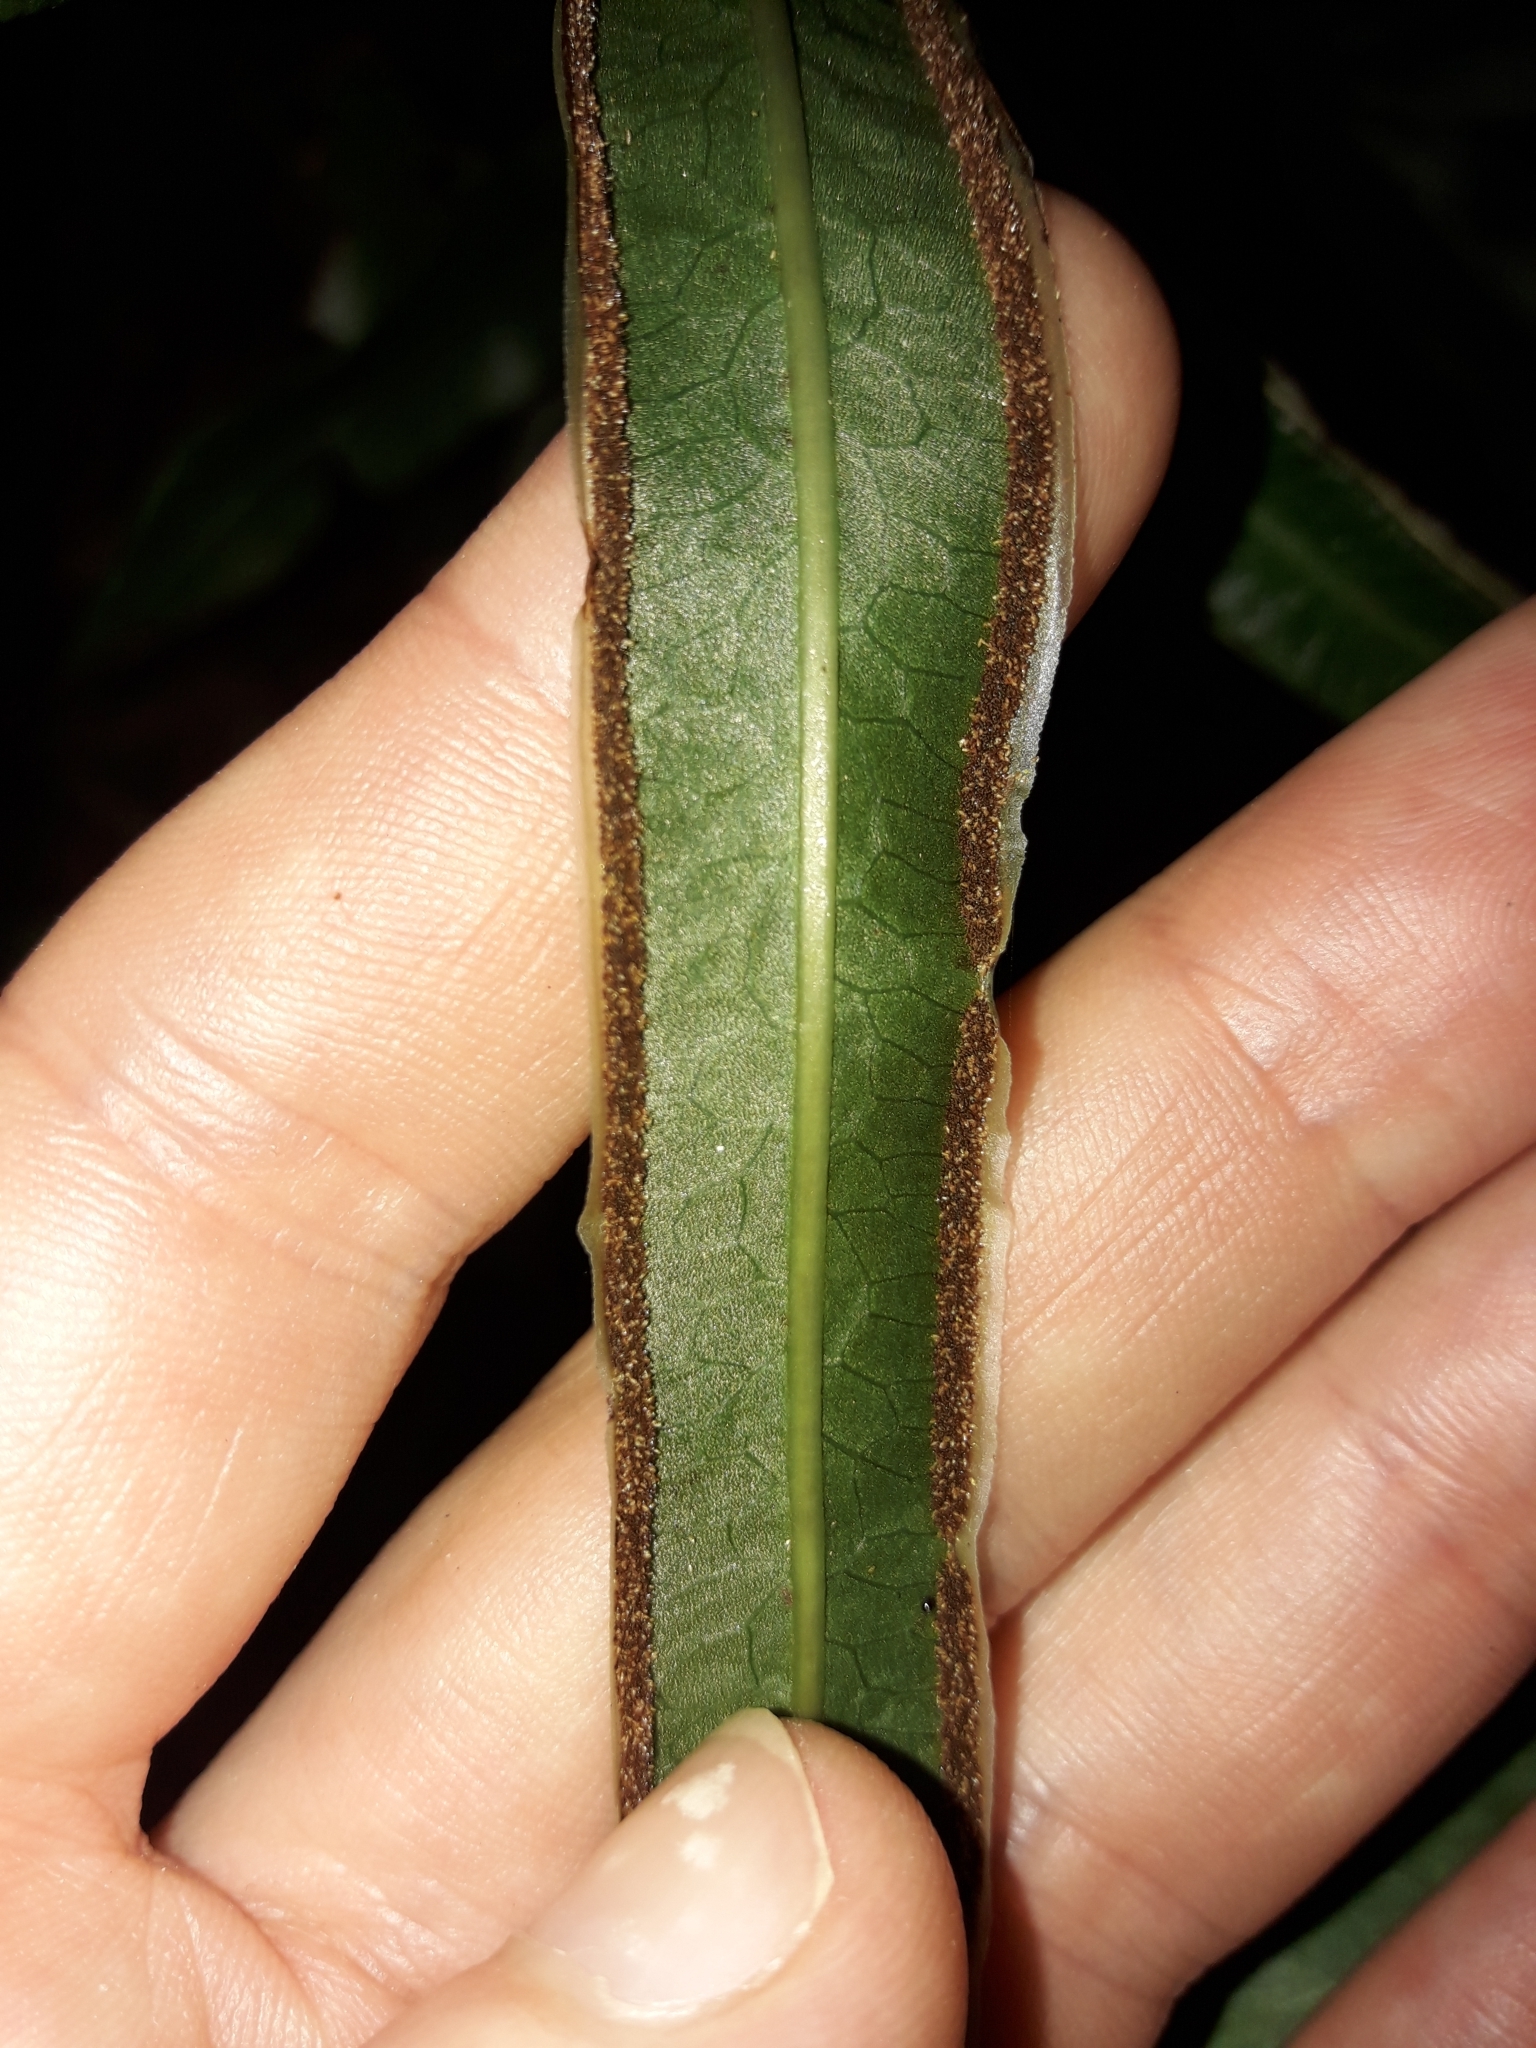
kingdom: Plantae
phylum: Tracheophyta
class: Polypodiopsida
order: Polypodiales
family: Pteridaceae
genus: Pteris
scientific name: Pteris vieillardii
